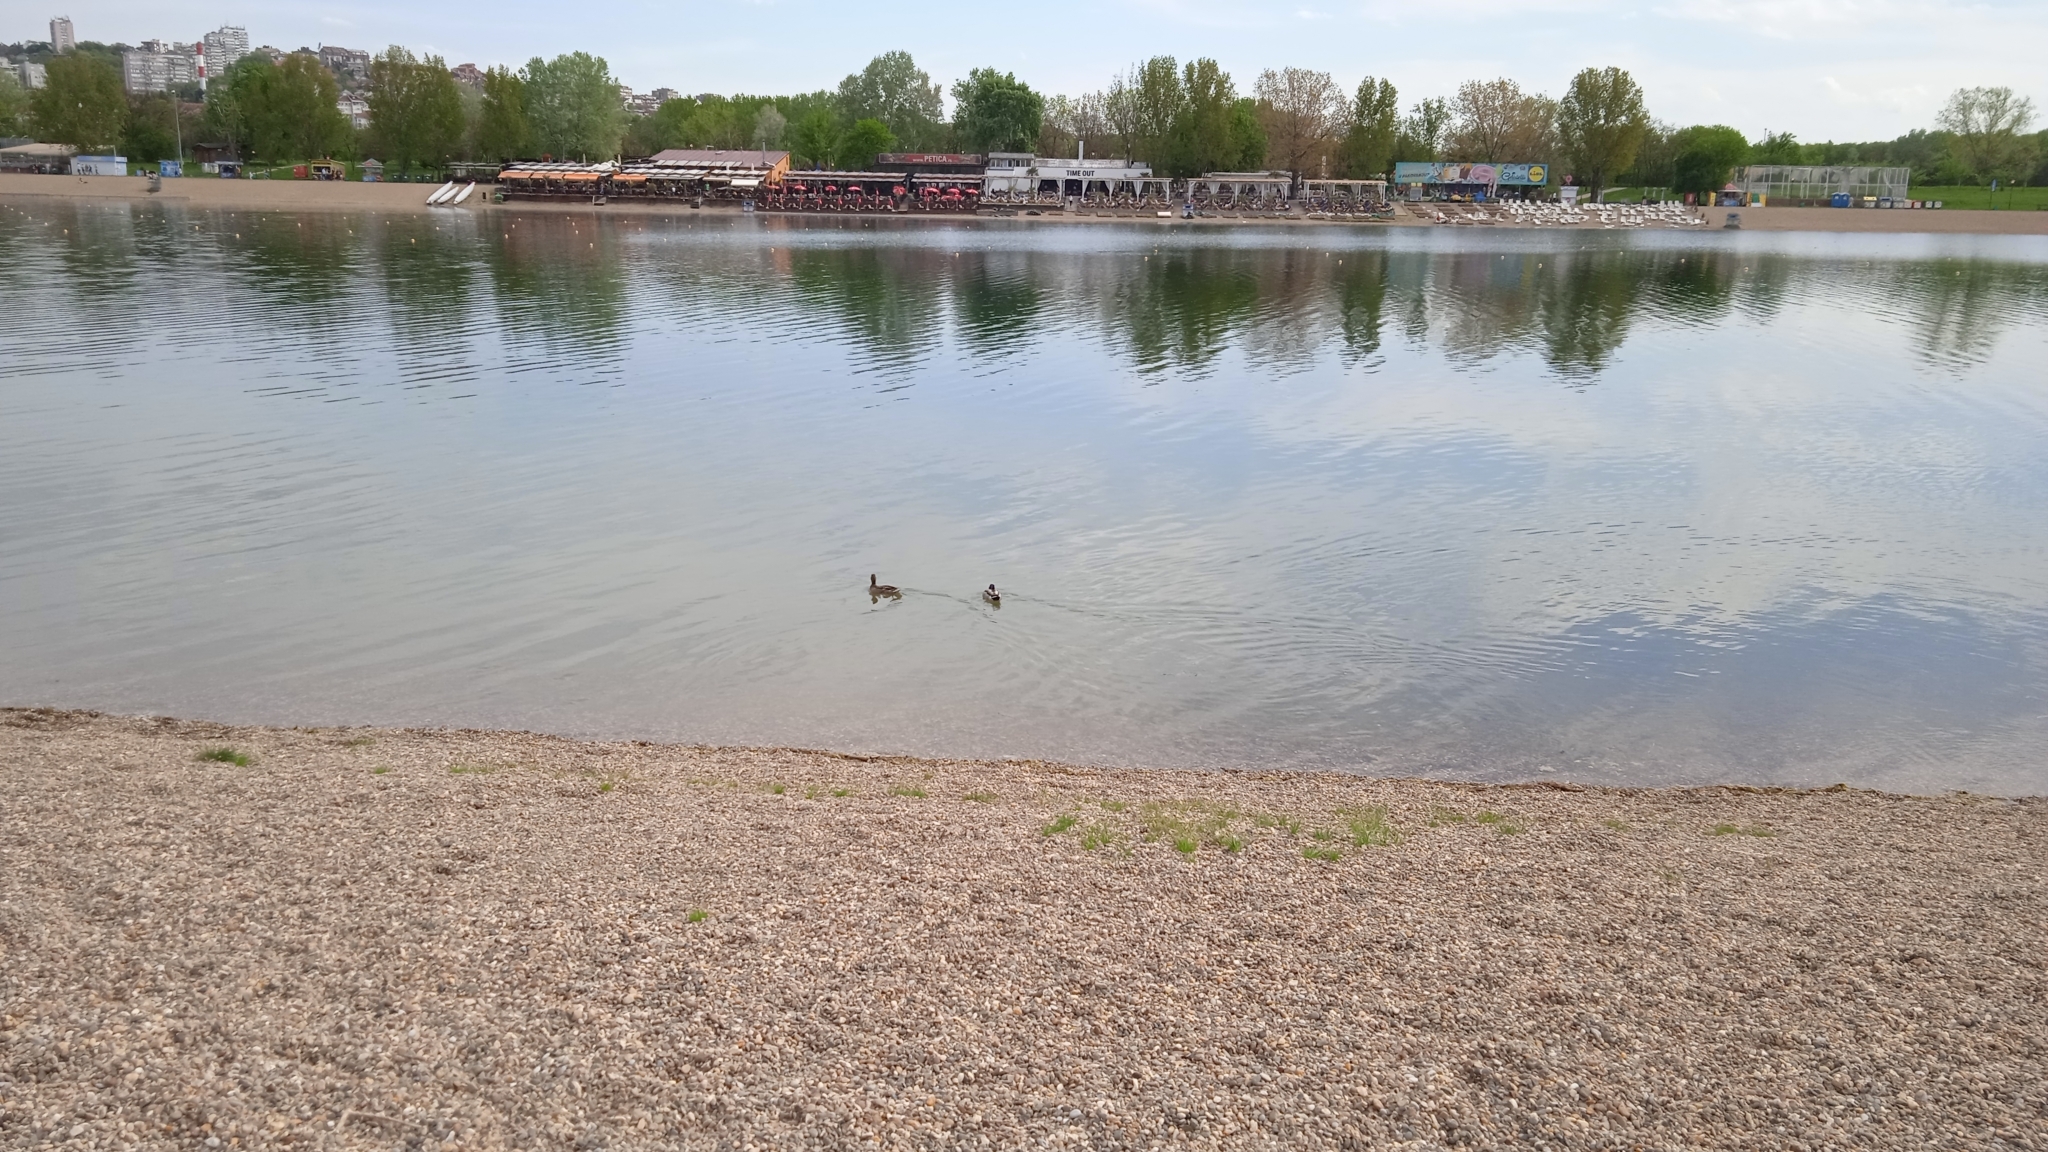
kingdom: Animalia
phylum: Chordata
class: Aves
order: Anseriformes
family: Anatidae
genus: Anas
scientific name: Anas platyrhynchos
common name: Mallard
